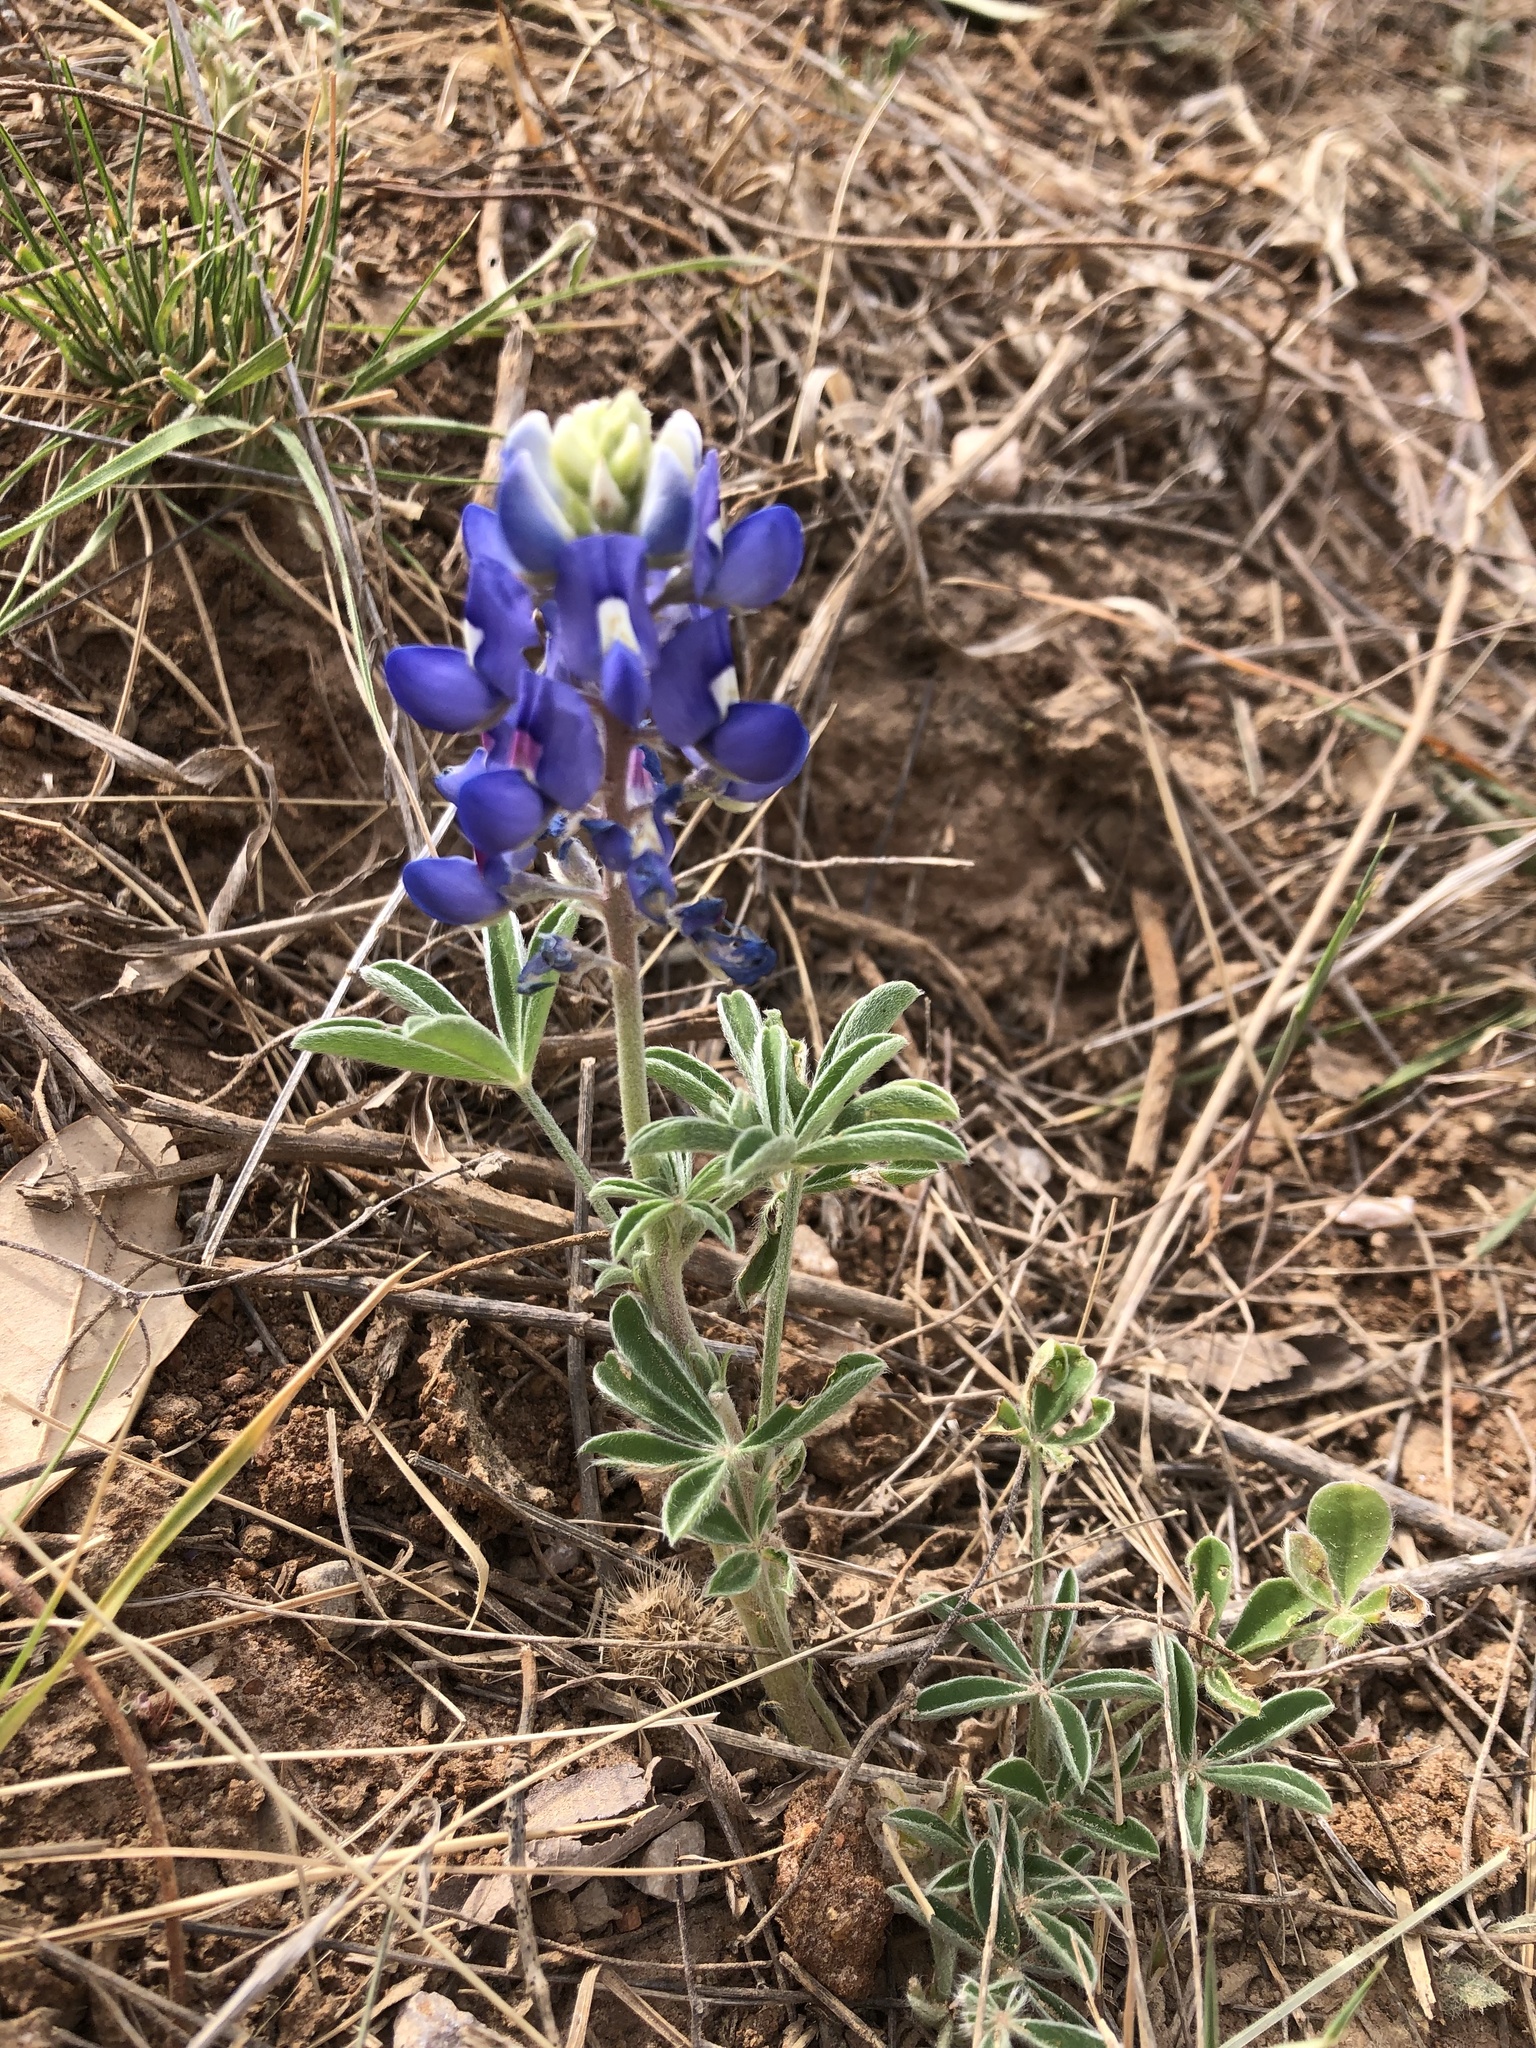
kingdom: Plantae
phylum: Tracheophyta
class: Magnoliopsida
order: Fabales
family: Fabaceae
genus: Lupinus
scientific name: Lupinus texensis
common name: Texas bluebonnet
